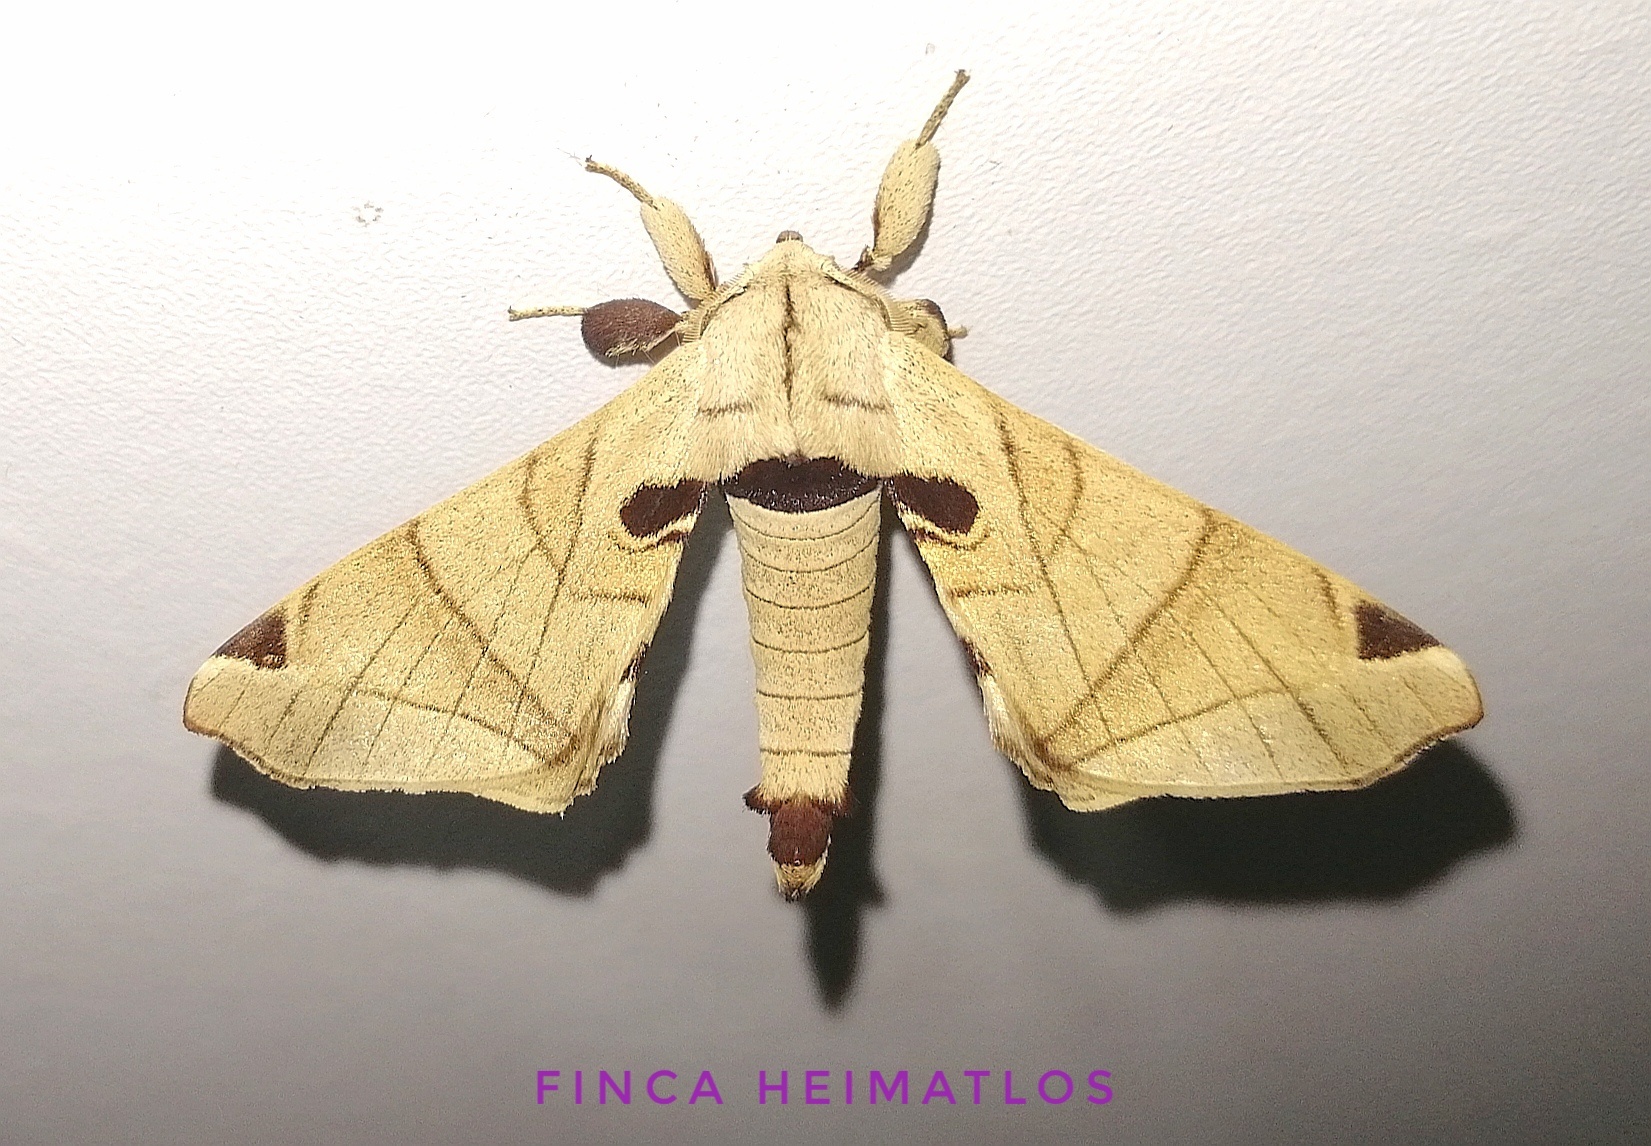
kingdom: Animalia
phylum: Arthropoda
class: Insecta
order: Lepidoptera
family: Apatelodidae
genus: Hygrochroa
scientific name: Hygrochroa Apatelodes pandarioides
